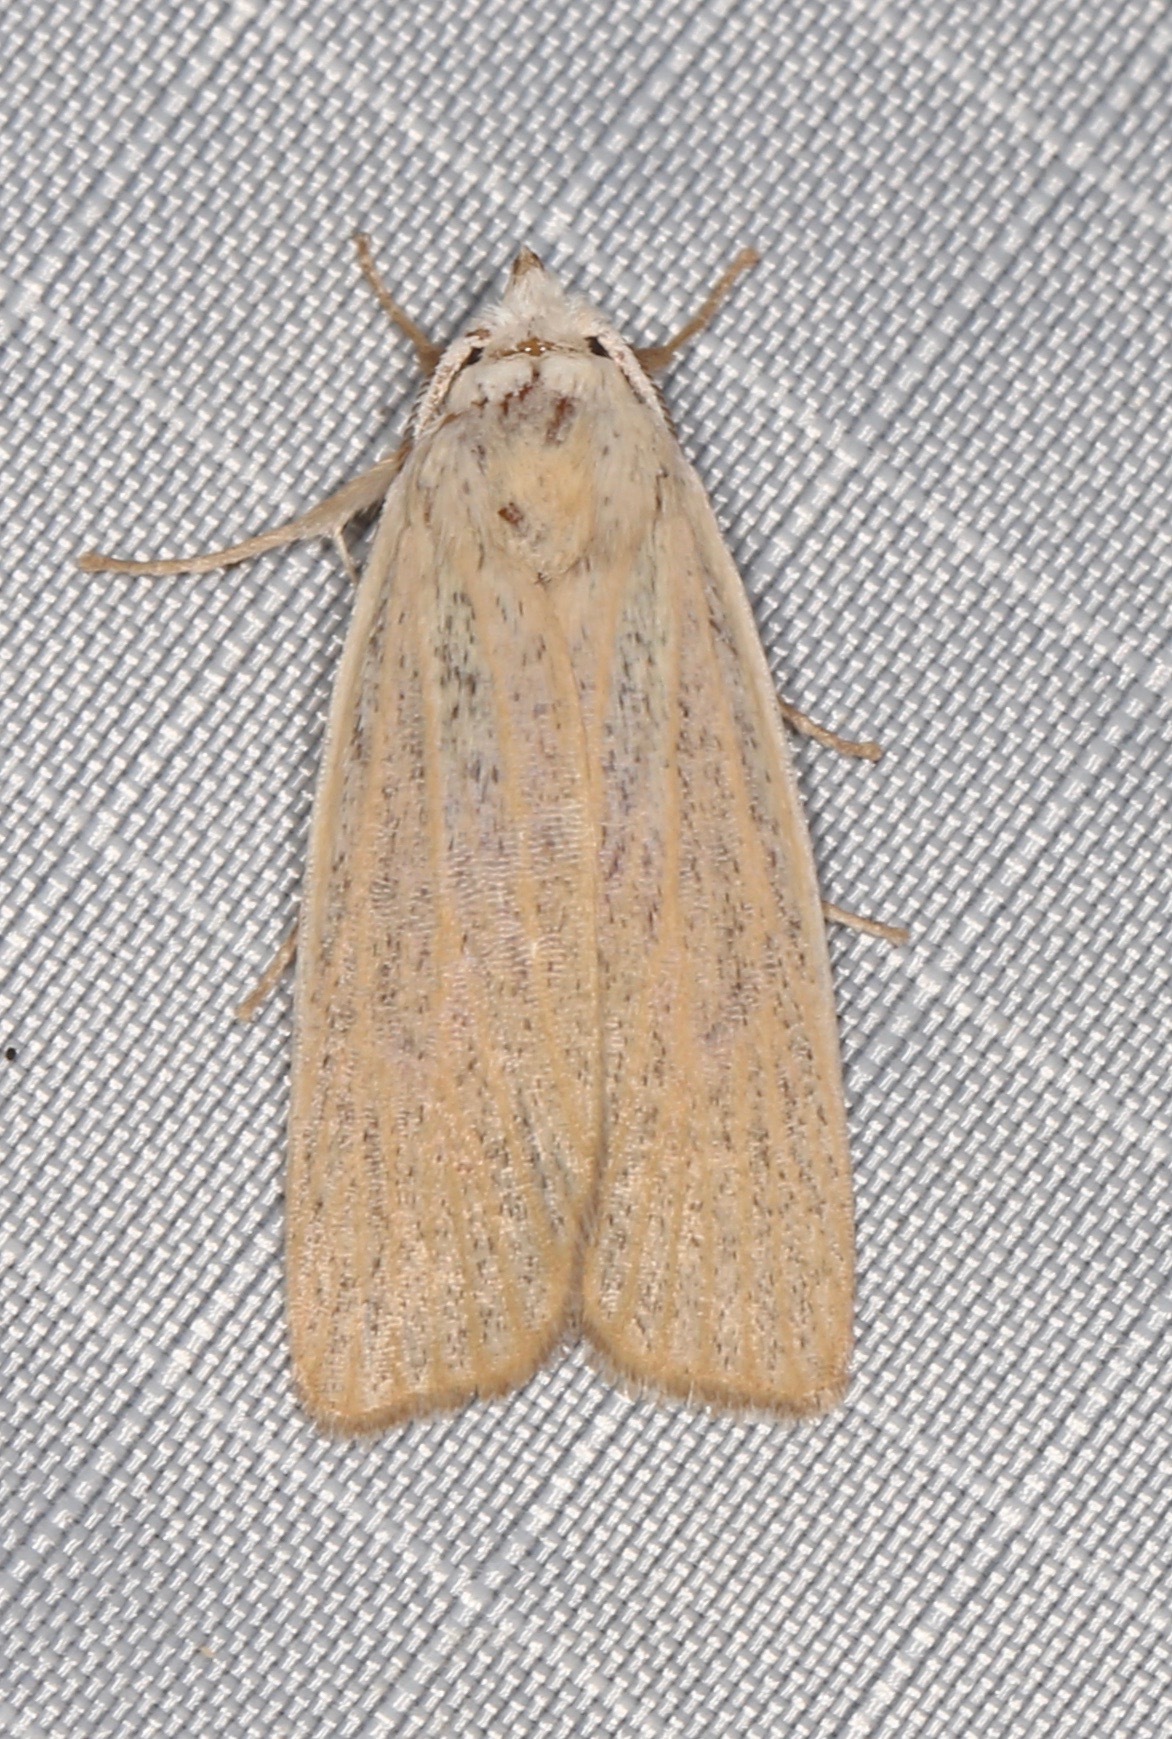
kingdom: Animalia
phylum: Arthropoda
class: Insecta
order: Lepidoptera
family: Erebidae
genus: Palpidia
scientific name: Palpidia pallidior
